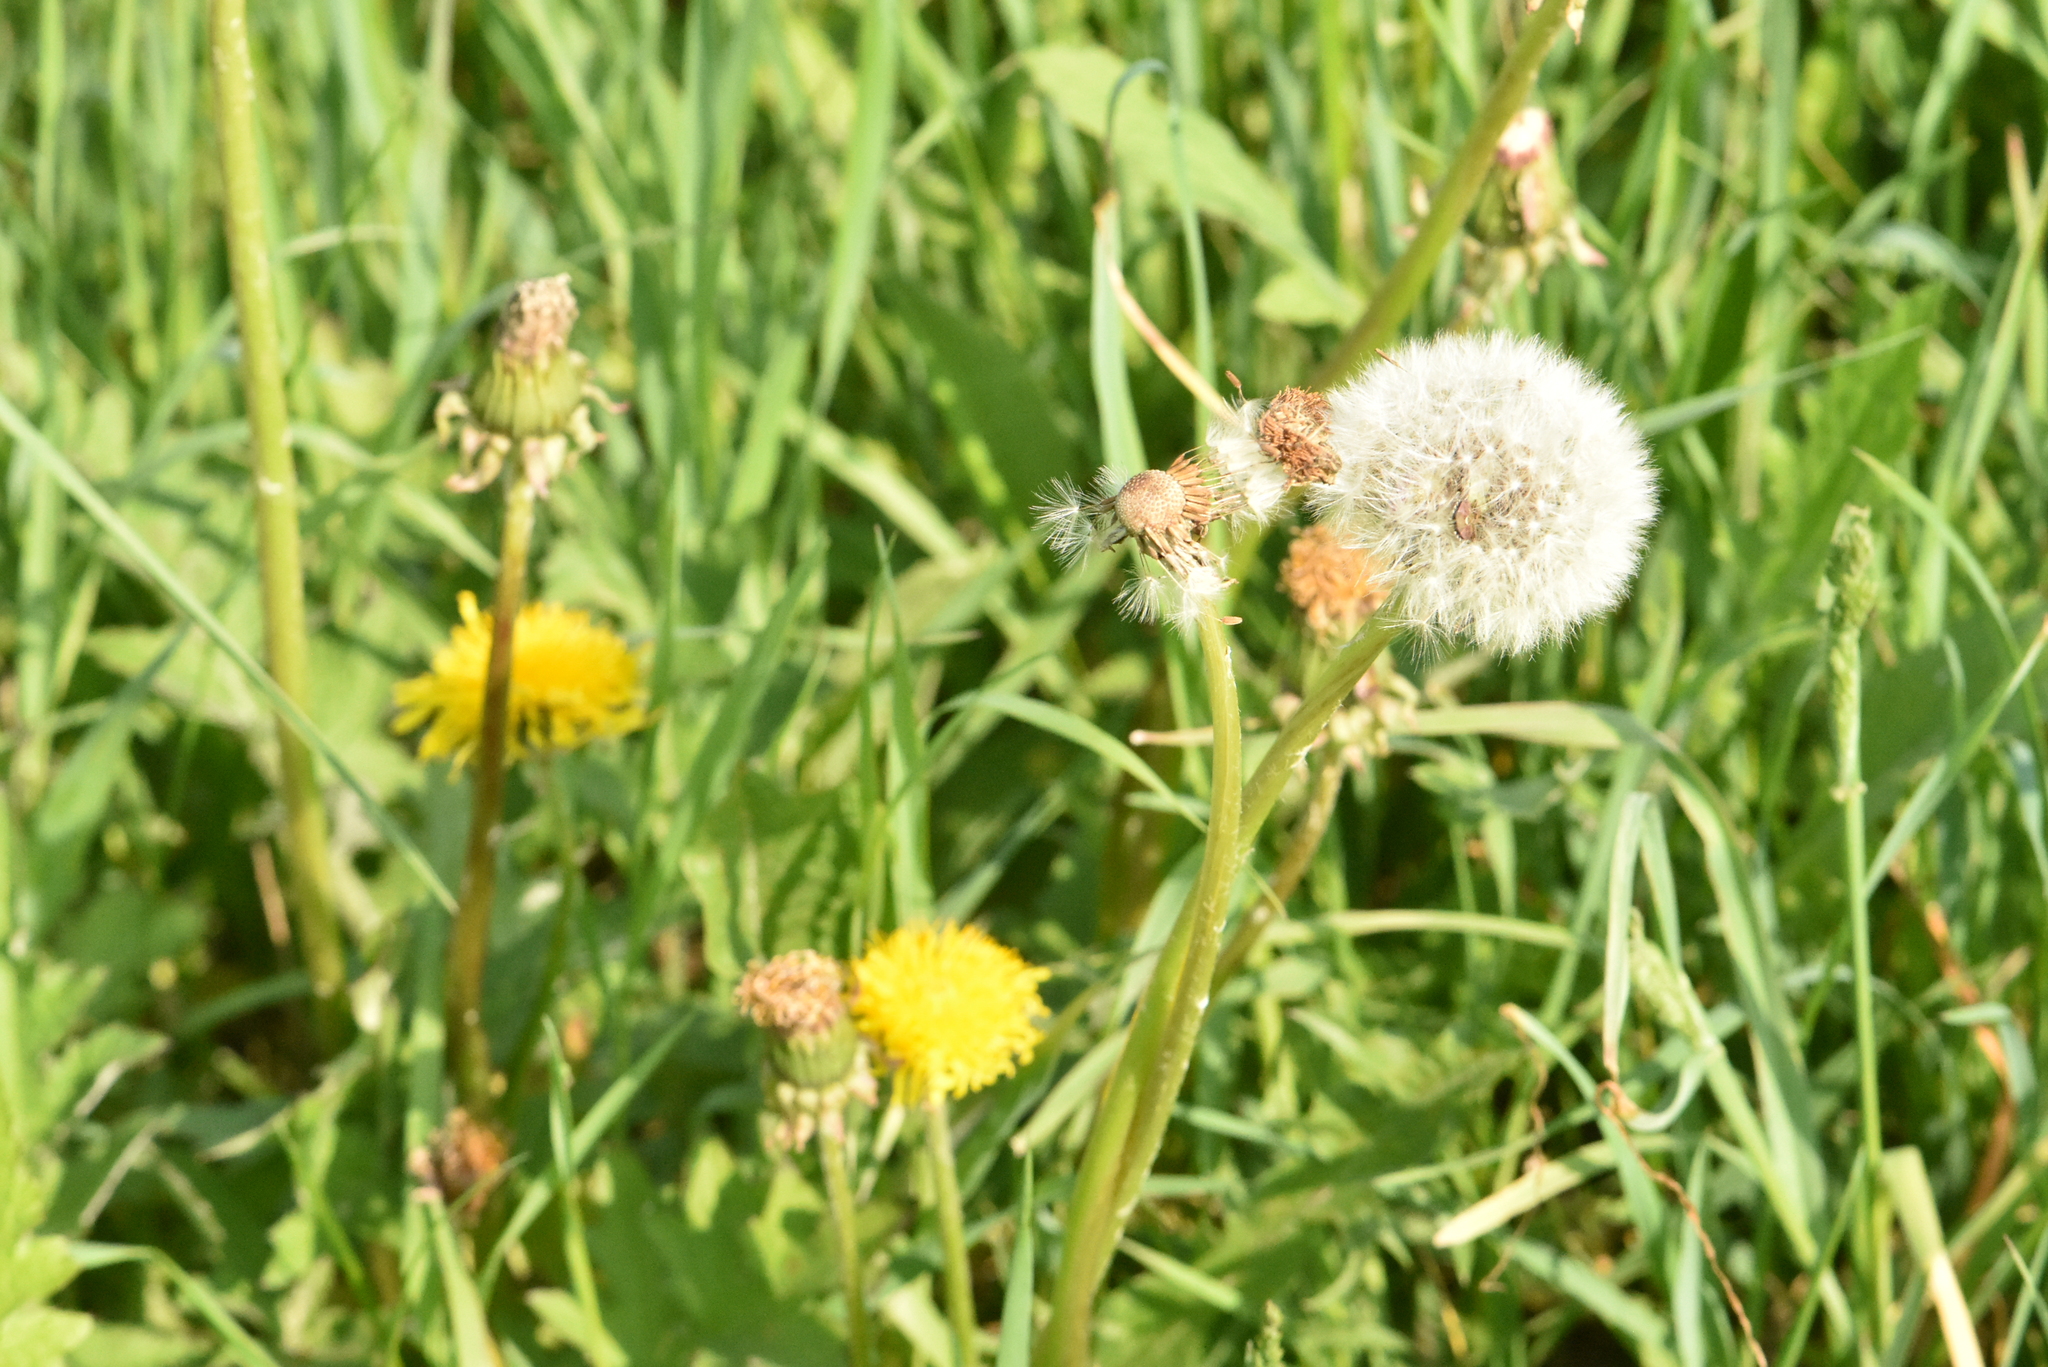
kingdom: Plantae
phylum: Tracheophyta
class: Magnoliopsida
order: Asterales
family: Asteraceae
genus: Taraxacum
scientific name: Taraxacum officinale
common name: Common dandelion
